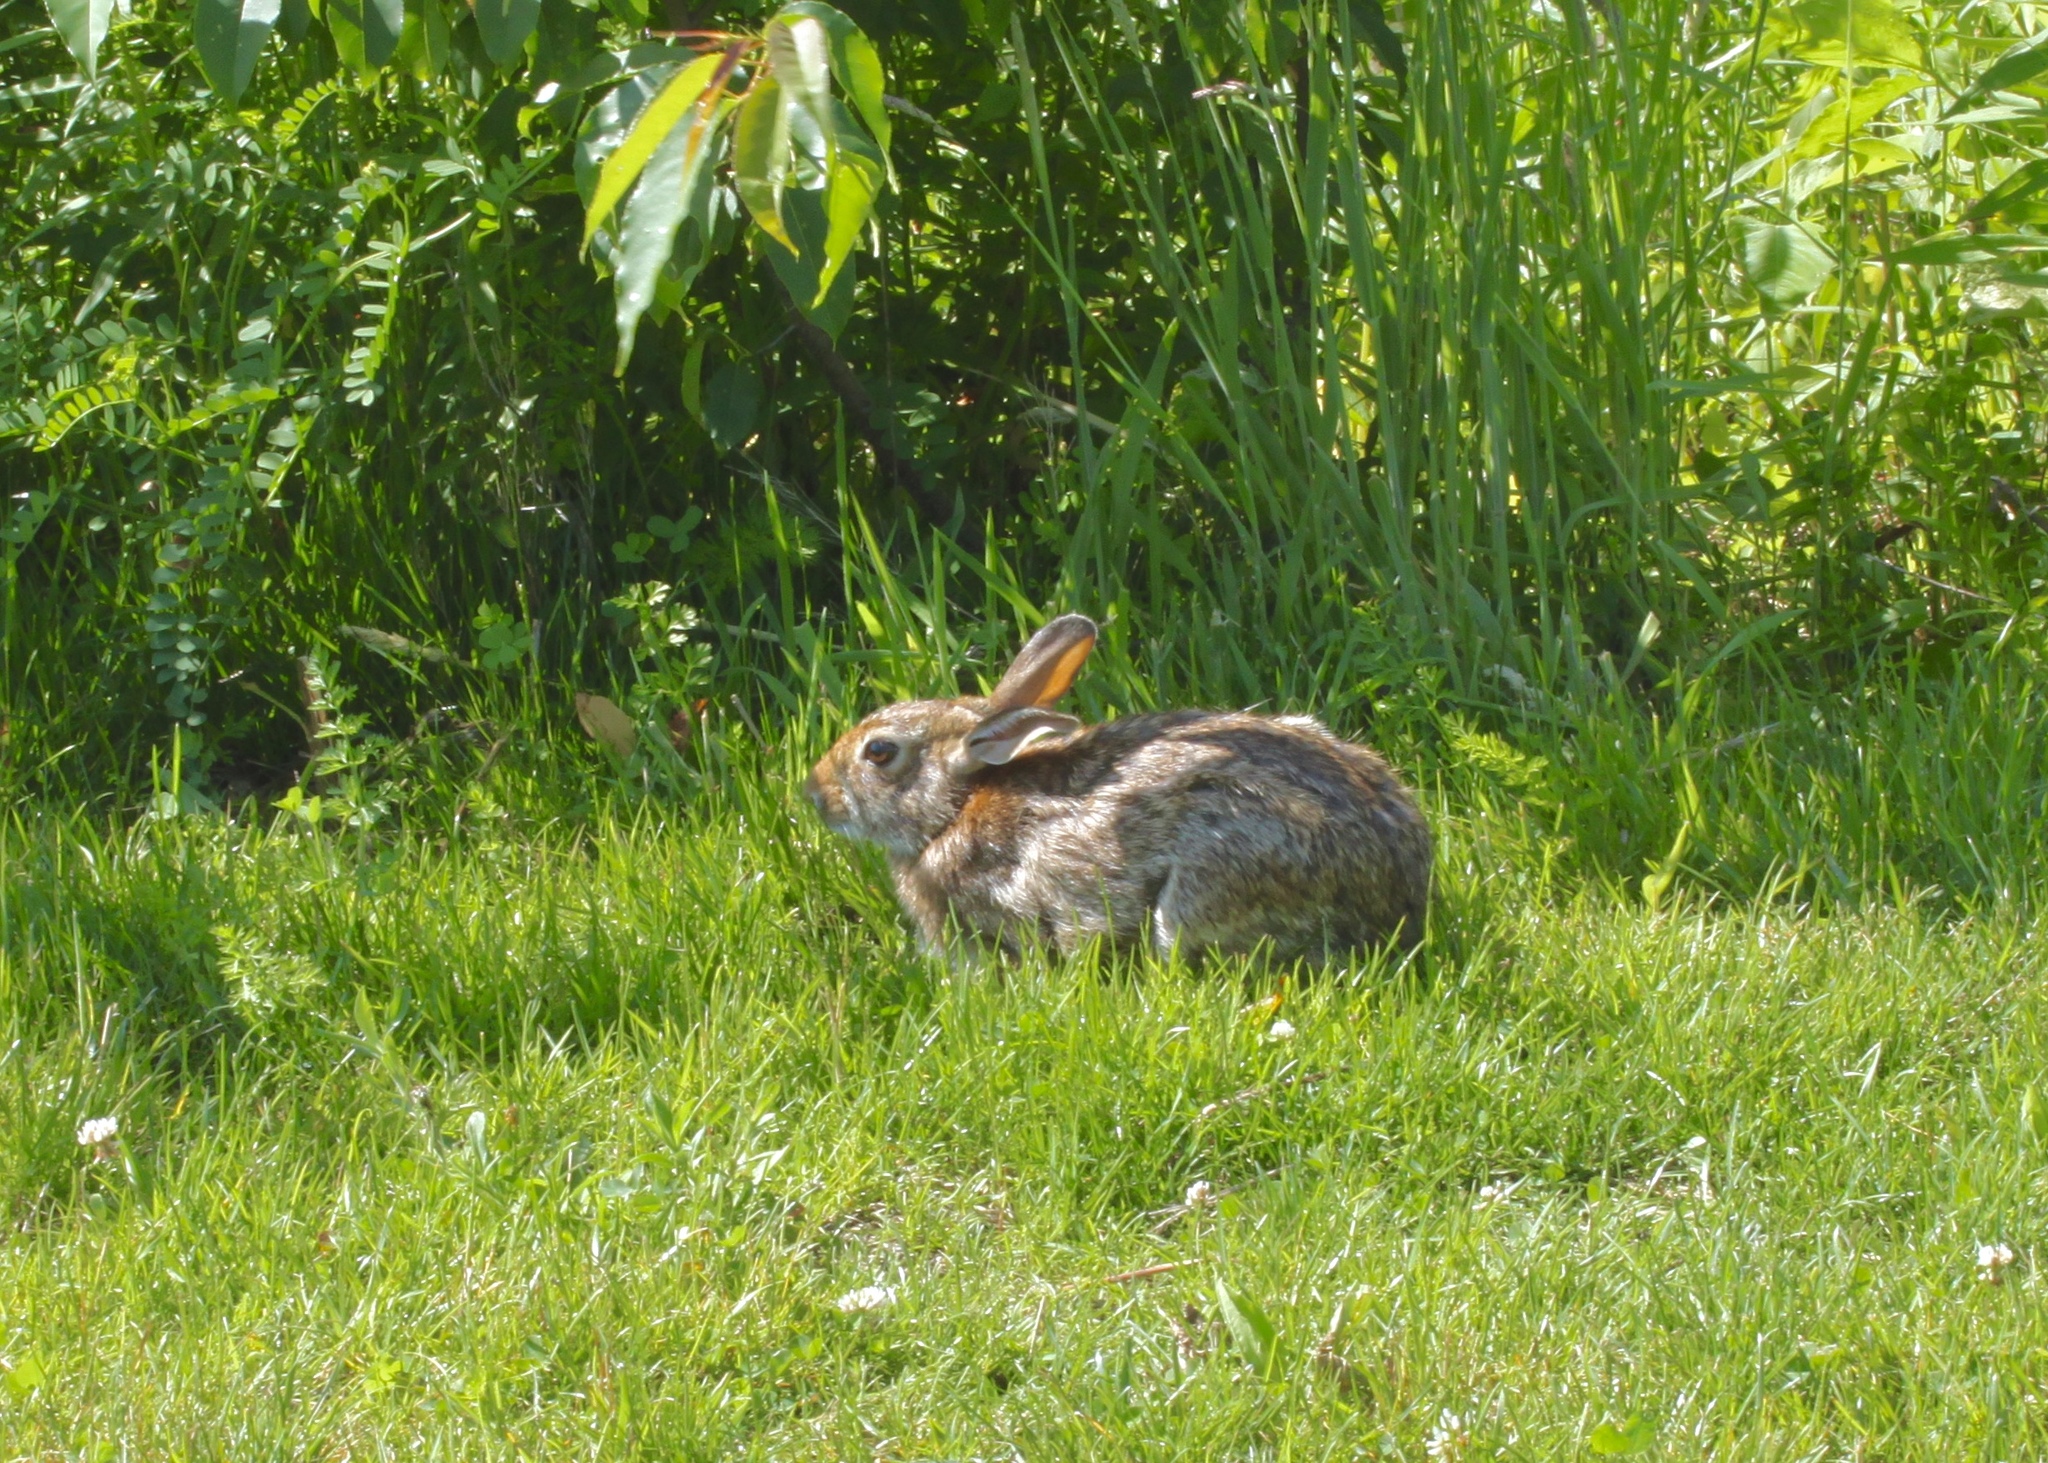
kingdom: Animalia
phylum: Chordata
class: Mammalia
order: Lagomorpha
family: Leporidae
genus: Sylvilagus
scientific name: Sylvilagus floridanus
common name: Eastern cottontail
